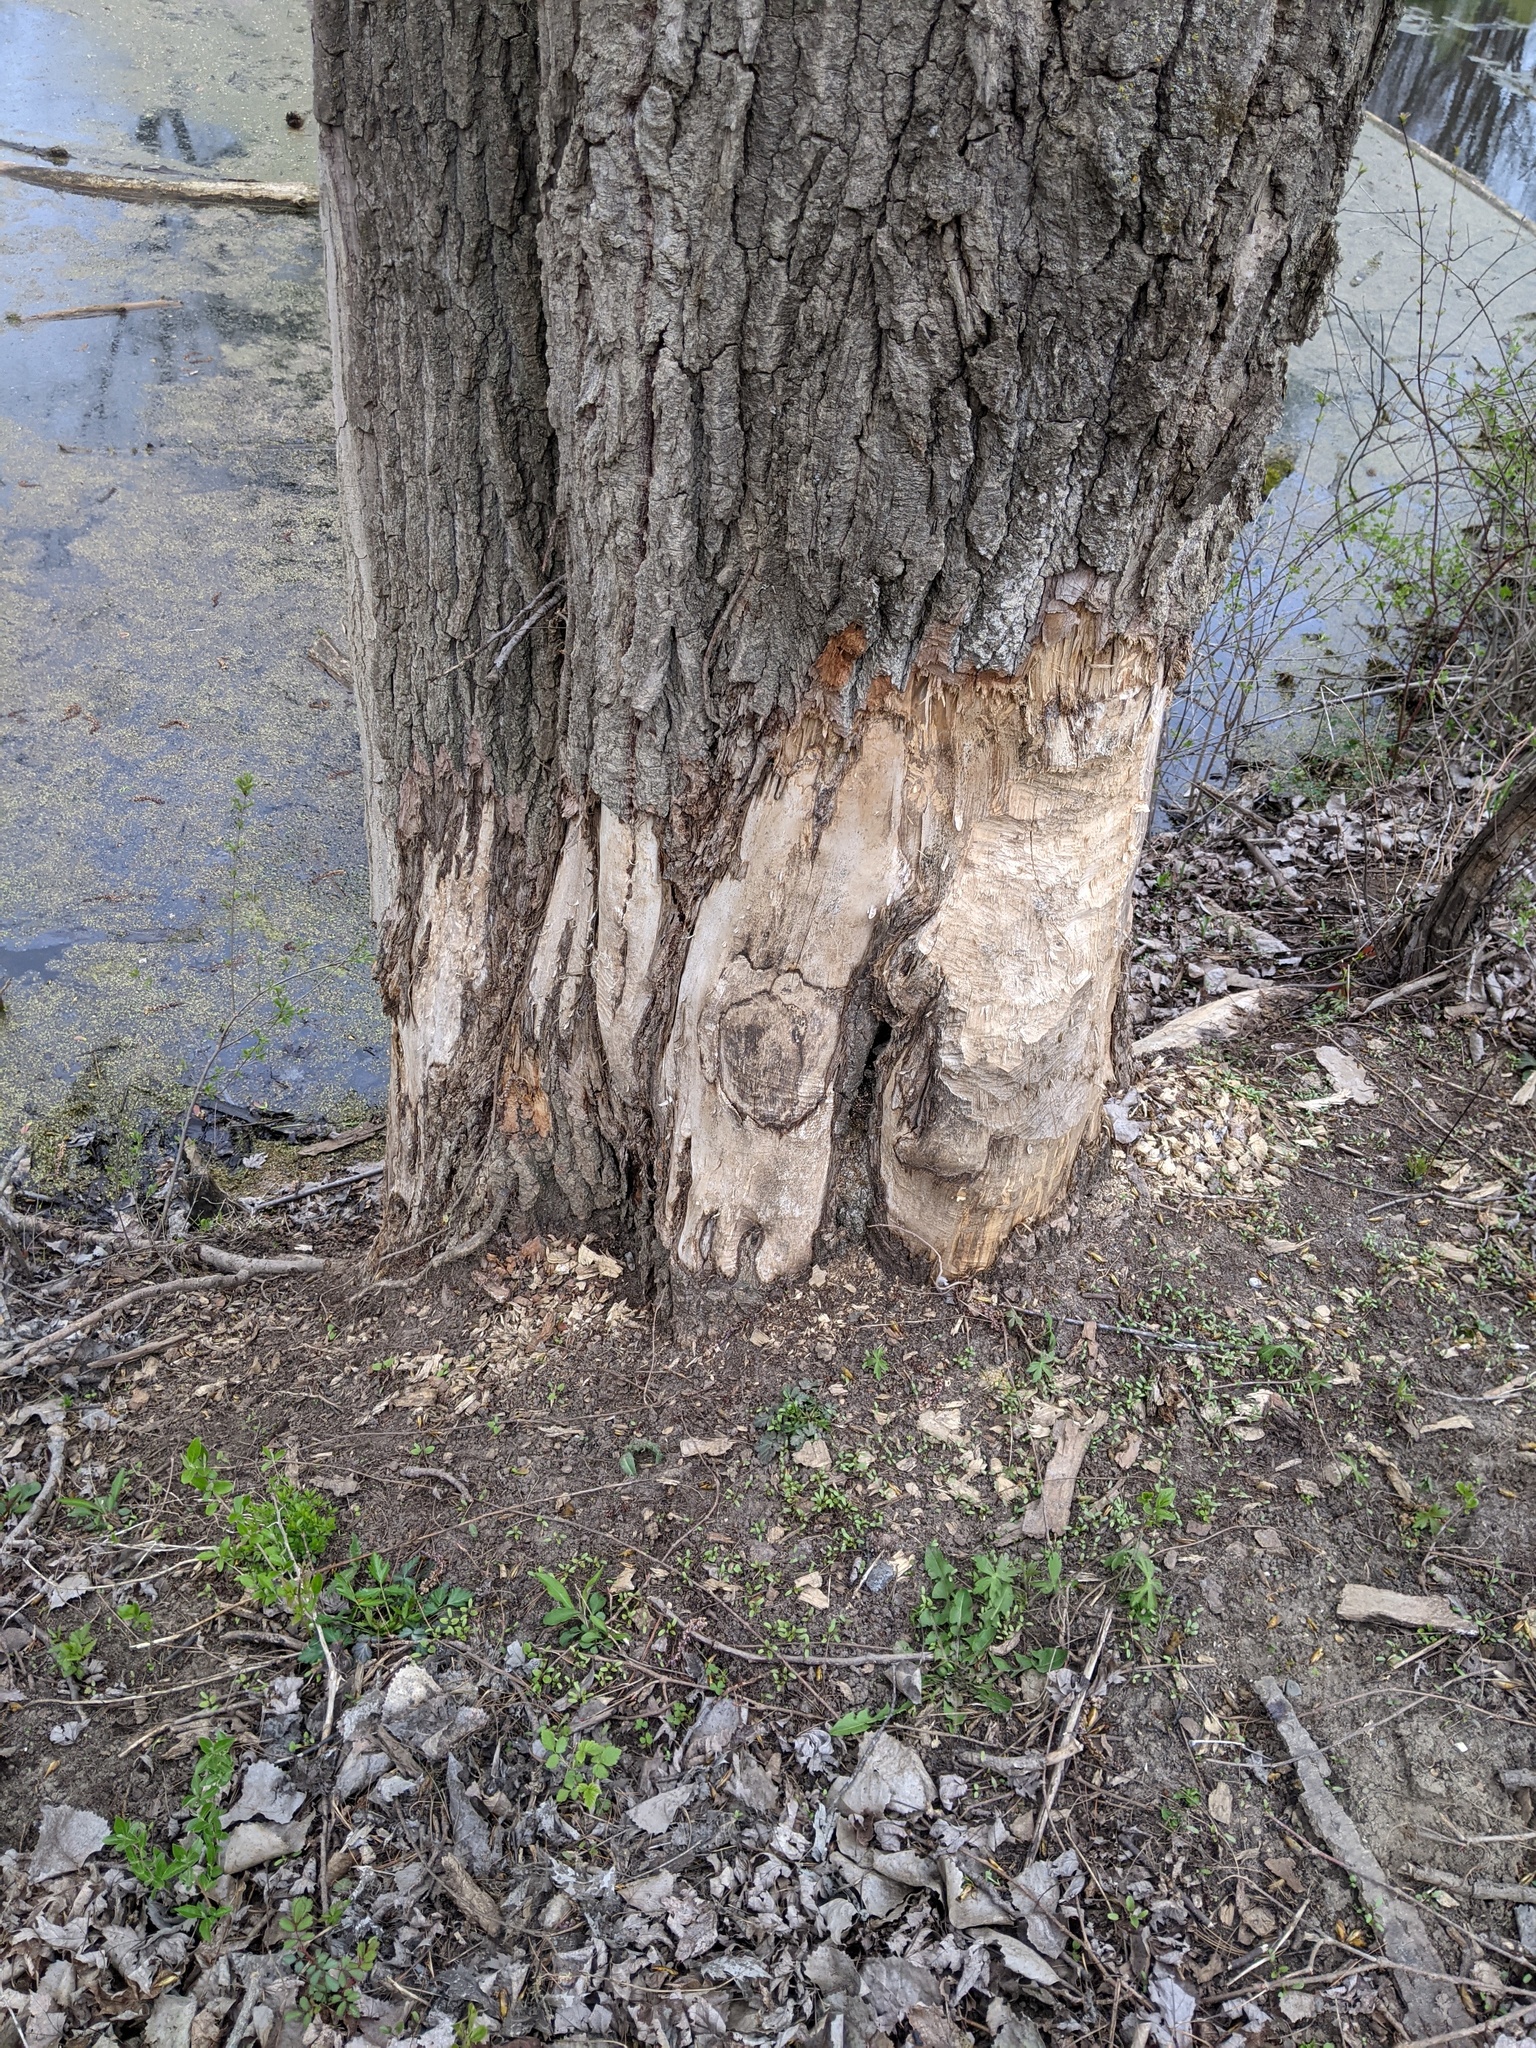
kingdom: Animalia
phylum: Chordata
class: Mammalia
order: Rodentia
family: Castoridae
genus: Castor
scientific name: Castor canadensis
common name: American beaver
